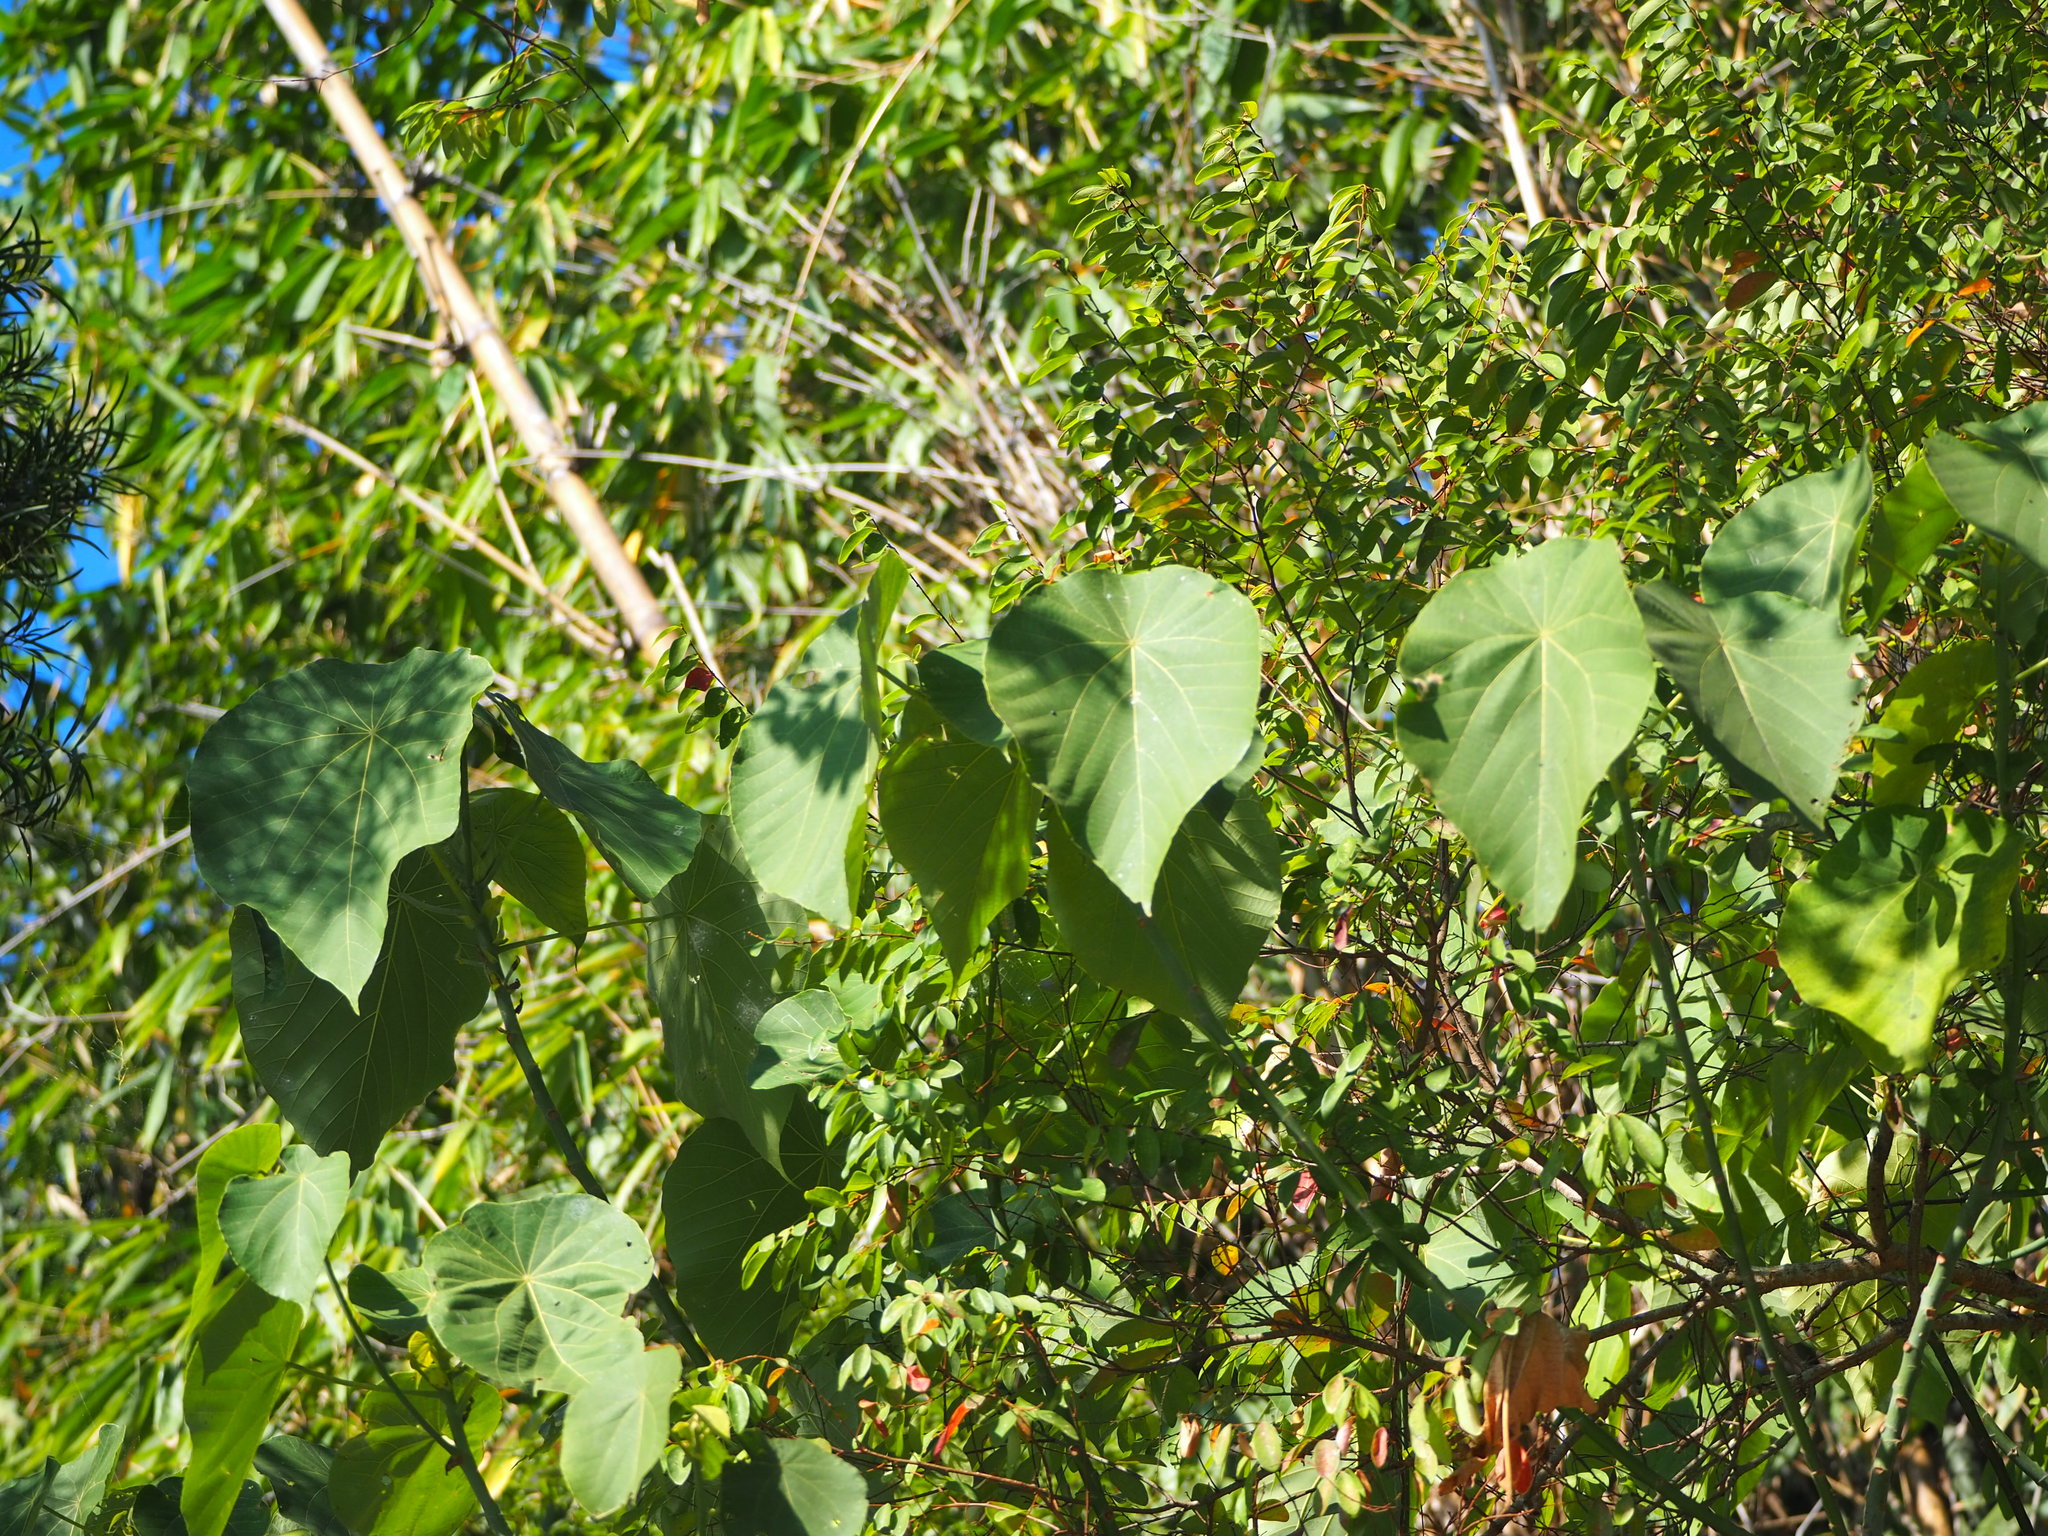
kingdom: Plantae
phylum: Tracheophyta
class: Magnoliopsida
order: Malpighiales
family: Euphorbiaceae
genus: Macaranga
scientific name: Macaranga tanarius
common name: Parasol leaf tree
